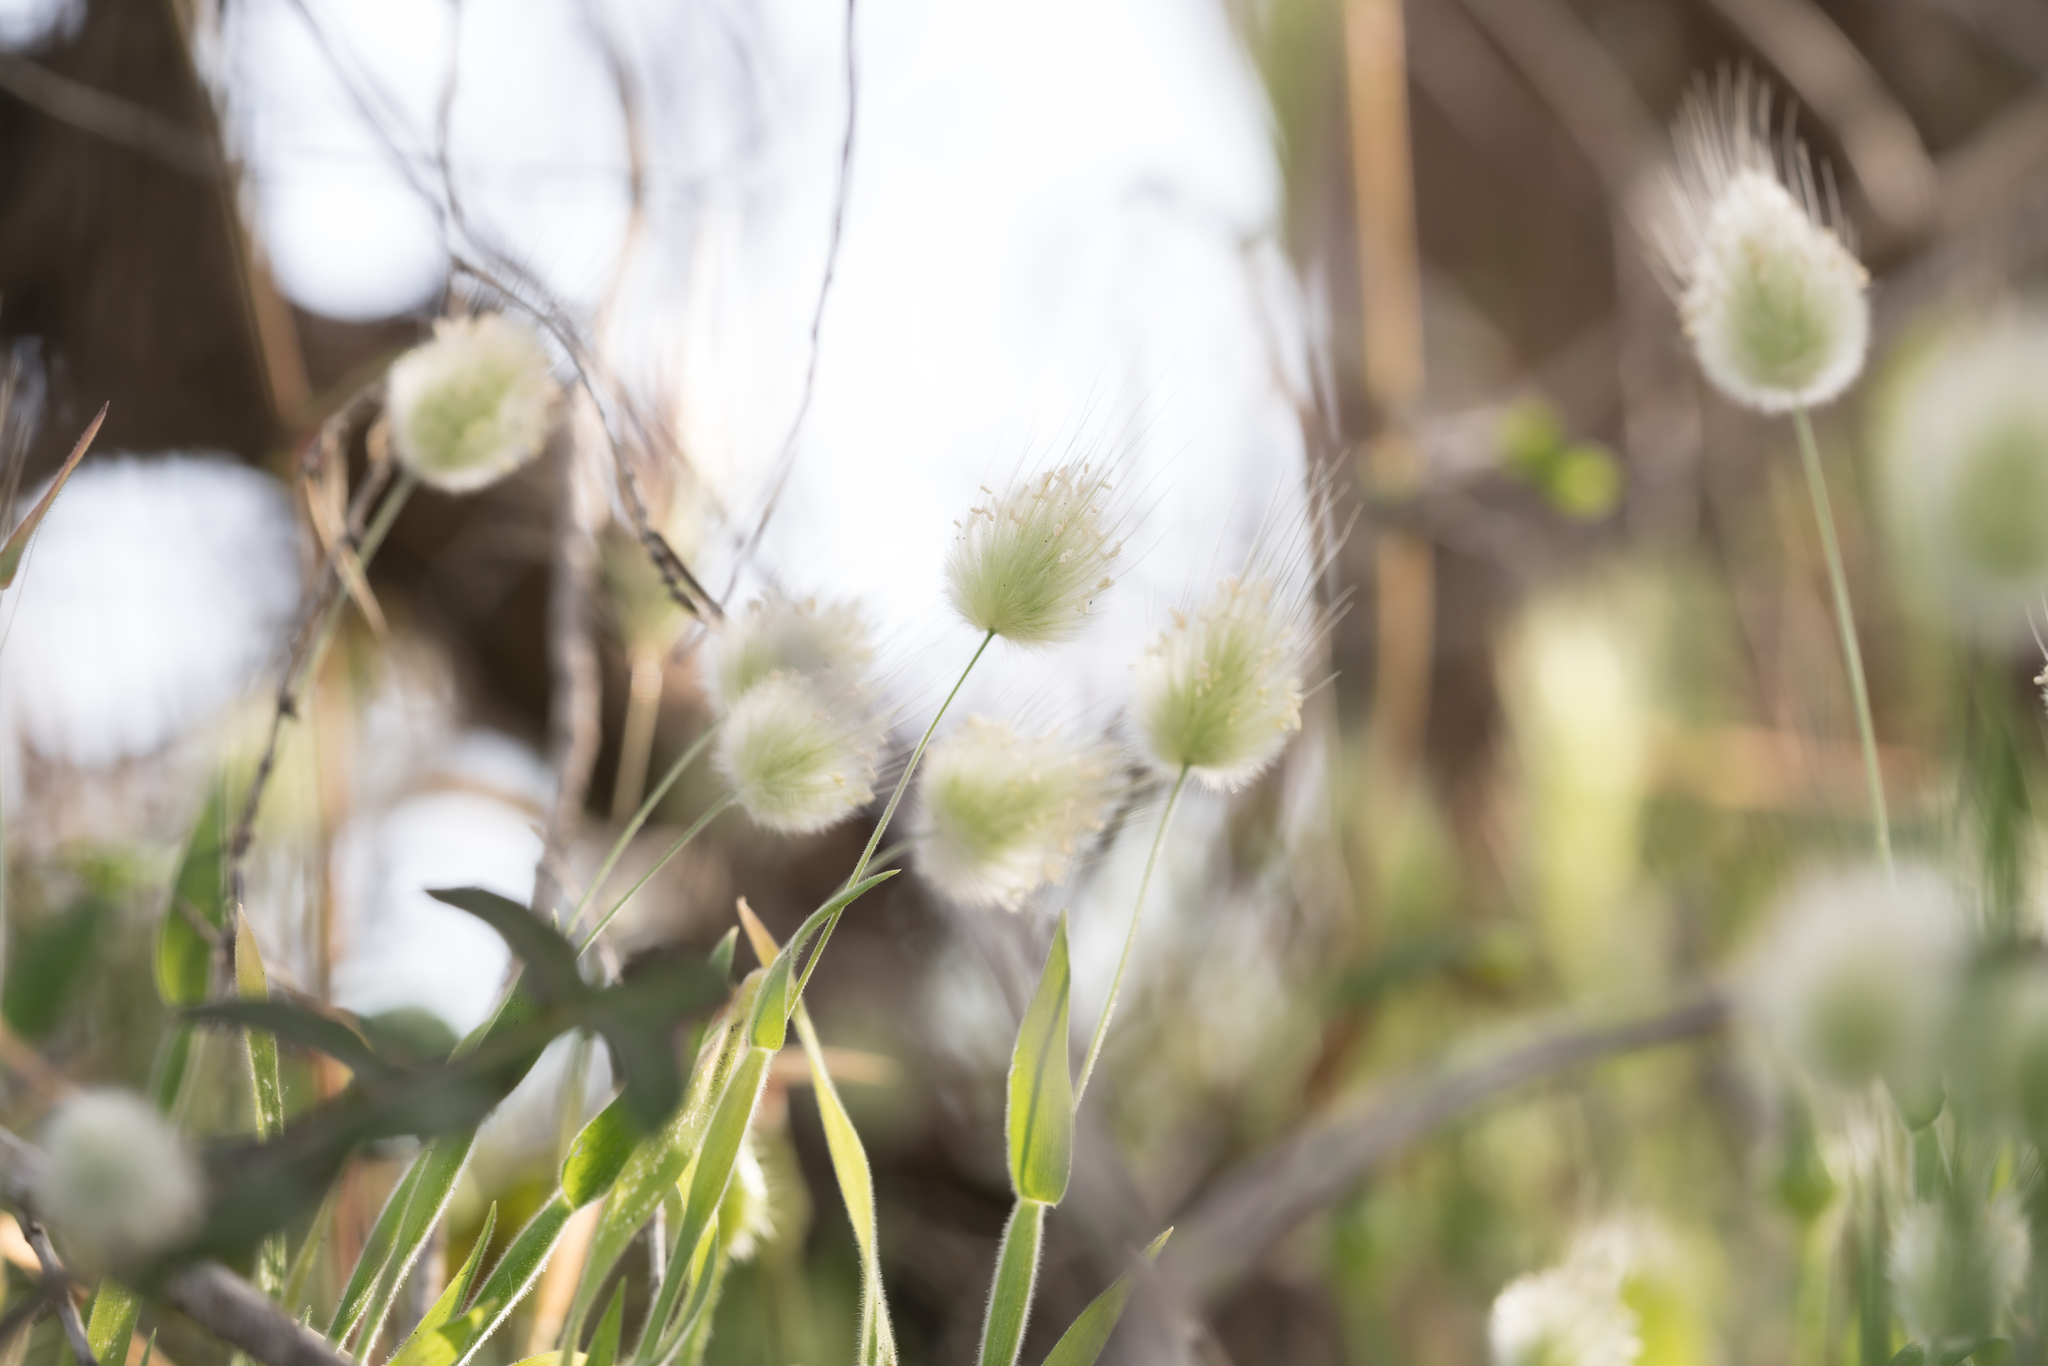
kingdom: Plantae
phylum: Tracheophyta
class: Liliopsida
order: Poales
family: Poaceae
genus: Lagurus
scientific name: Lagurus ovatus
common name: Hare's-tail
